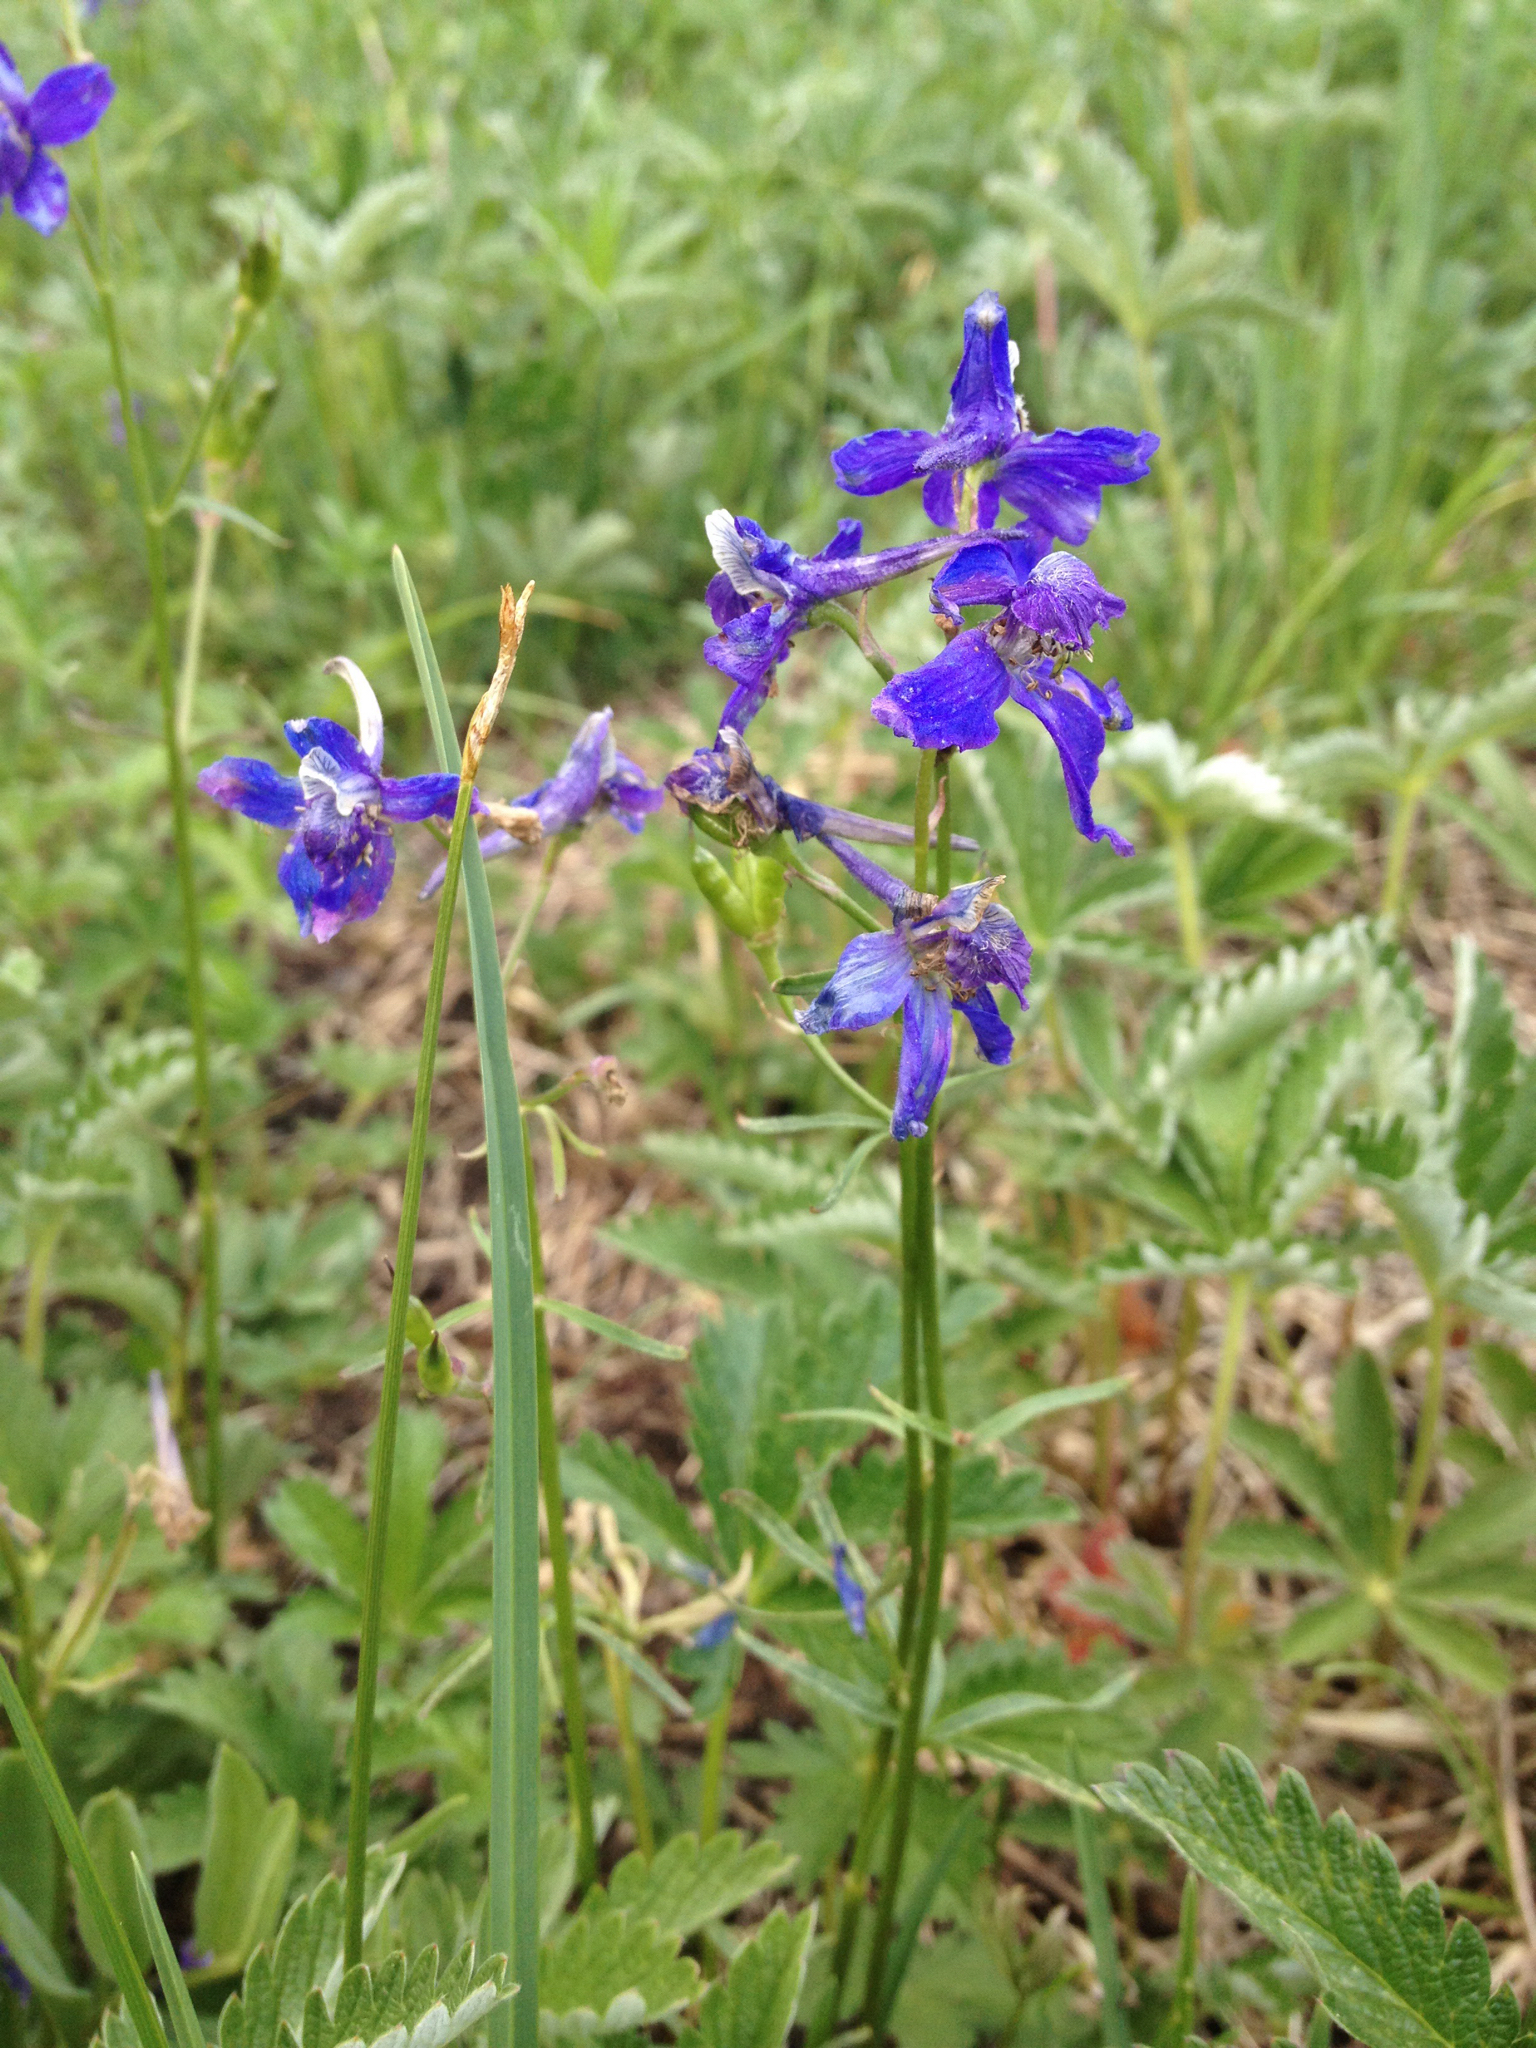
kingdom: Plantae
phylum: Tracheophyta
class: Magnoliopsida
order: Ranunculales
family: Ranunculaceae
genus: Delphinium
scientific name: Delphinium nuttallianum
